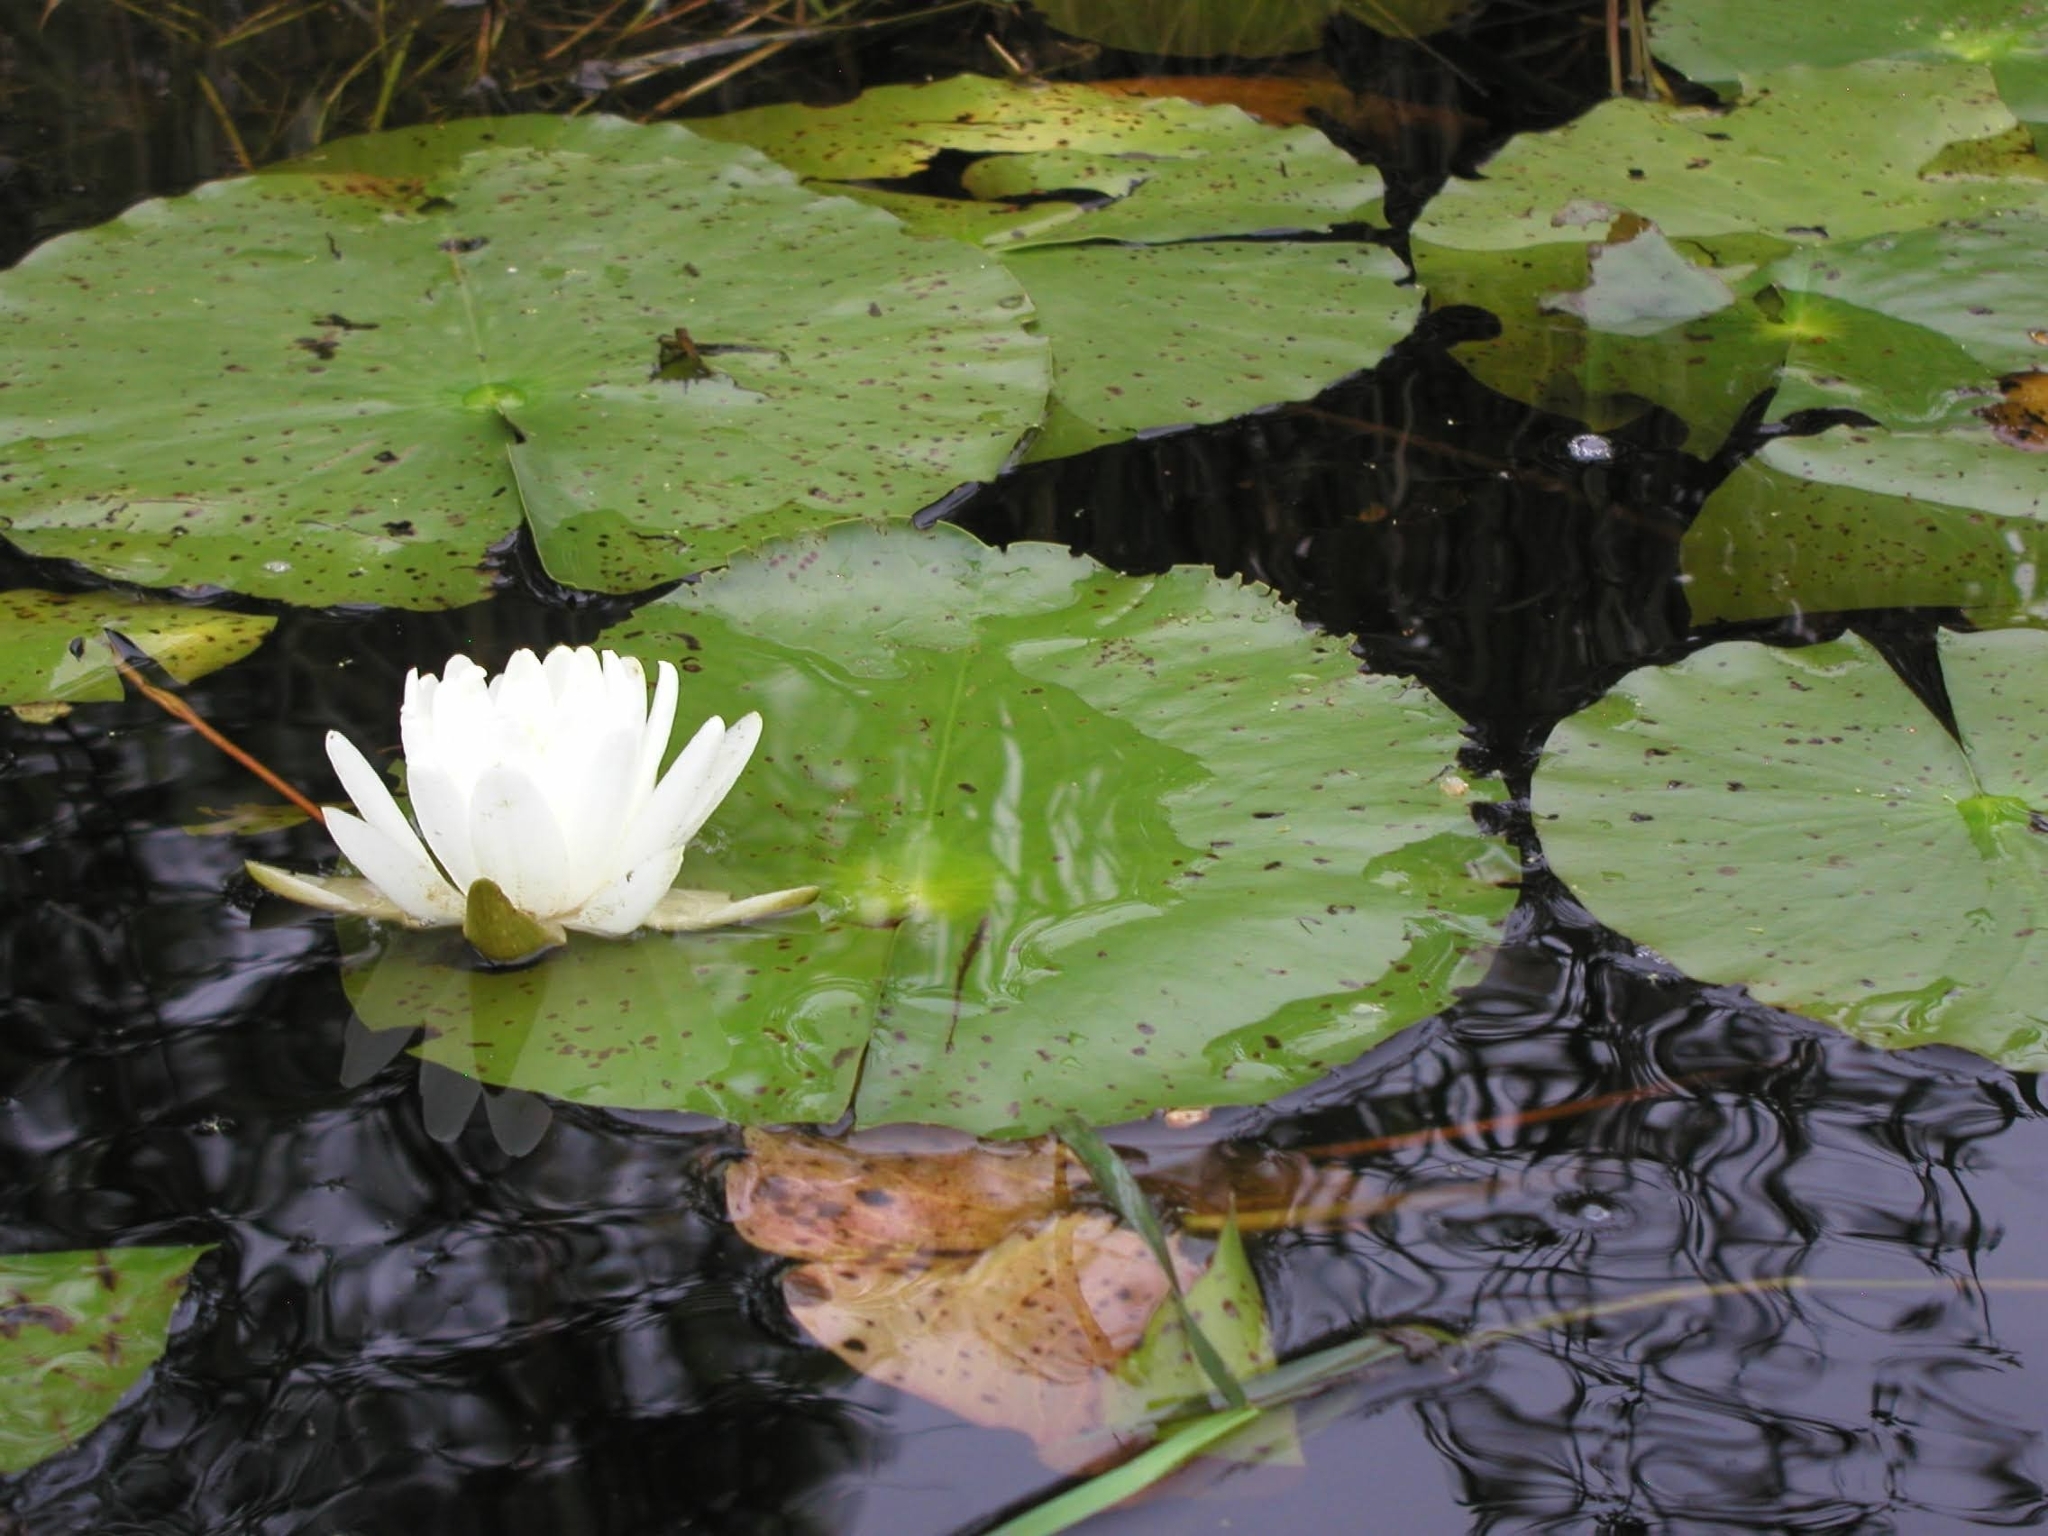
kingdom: Plantae
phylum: Tracheophyta
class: Magnoliopsida
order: Nymphaeales
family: Nymphaeaceae
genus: Nymphaea
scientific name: Nymphaea odorata
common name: Fragrant water-lily
